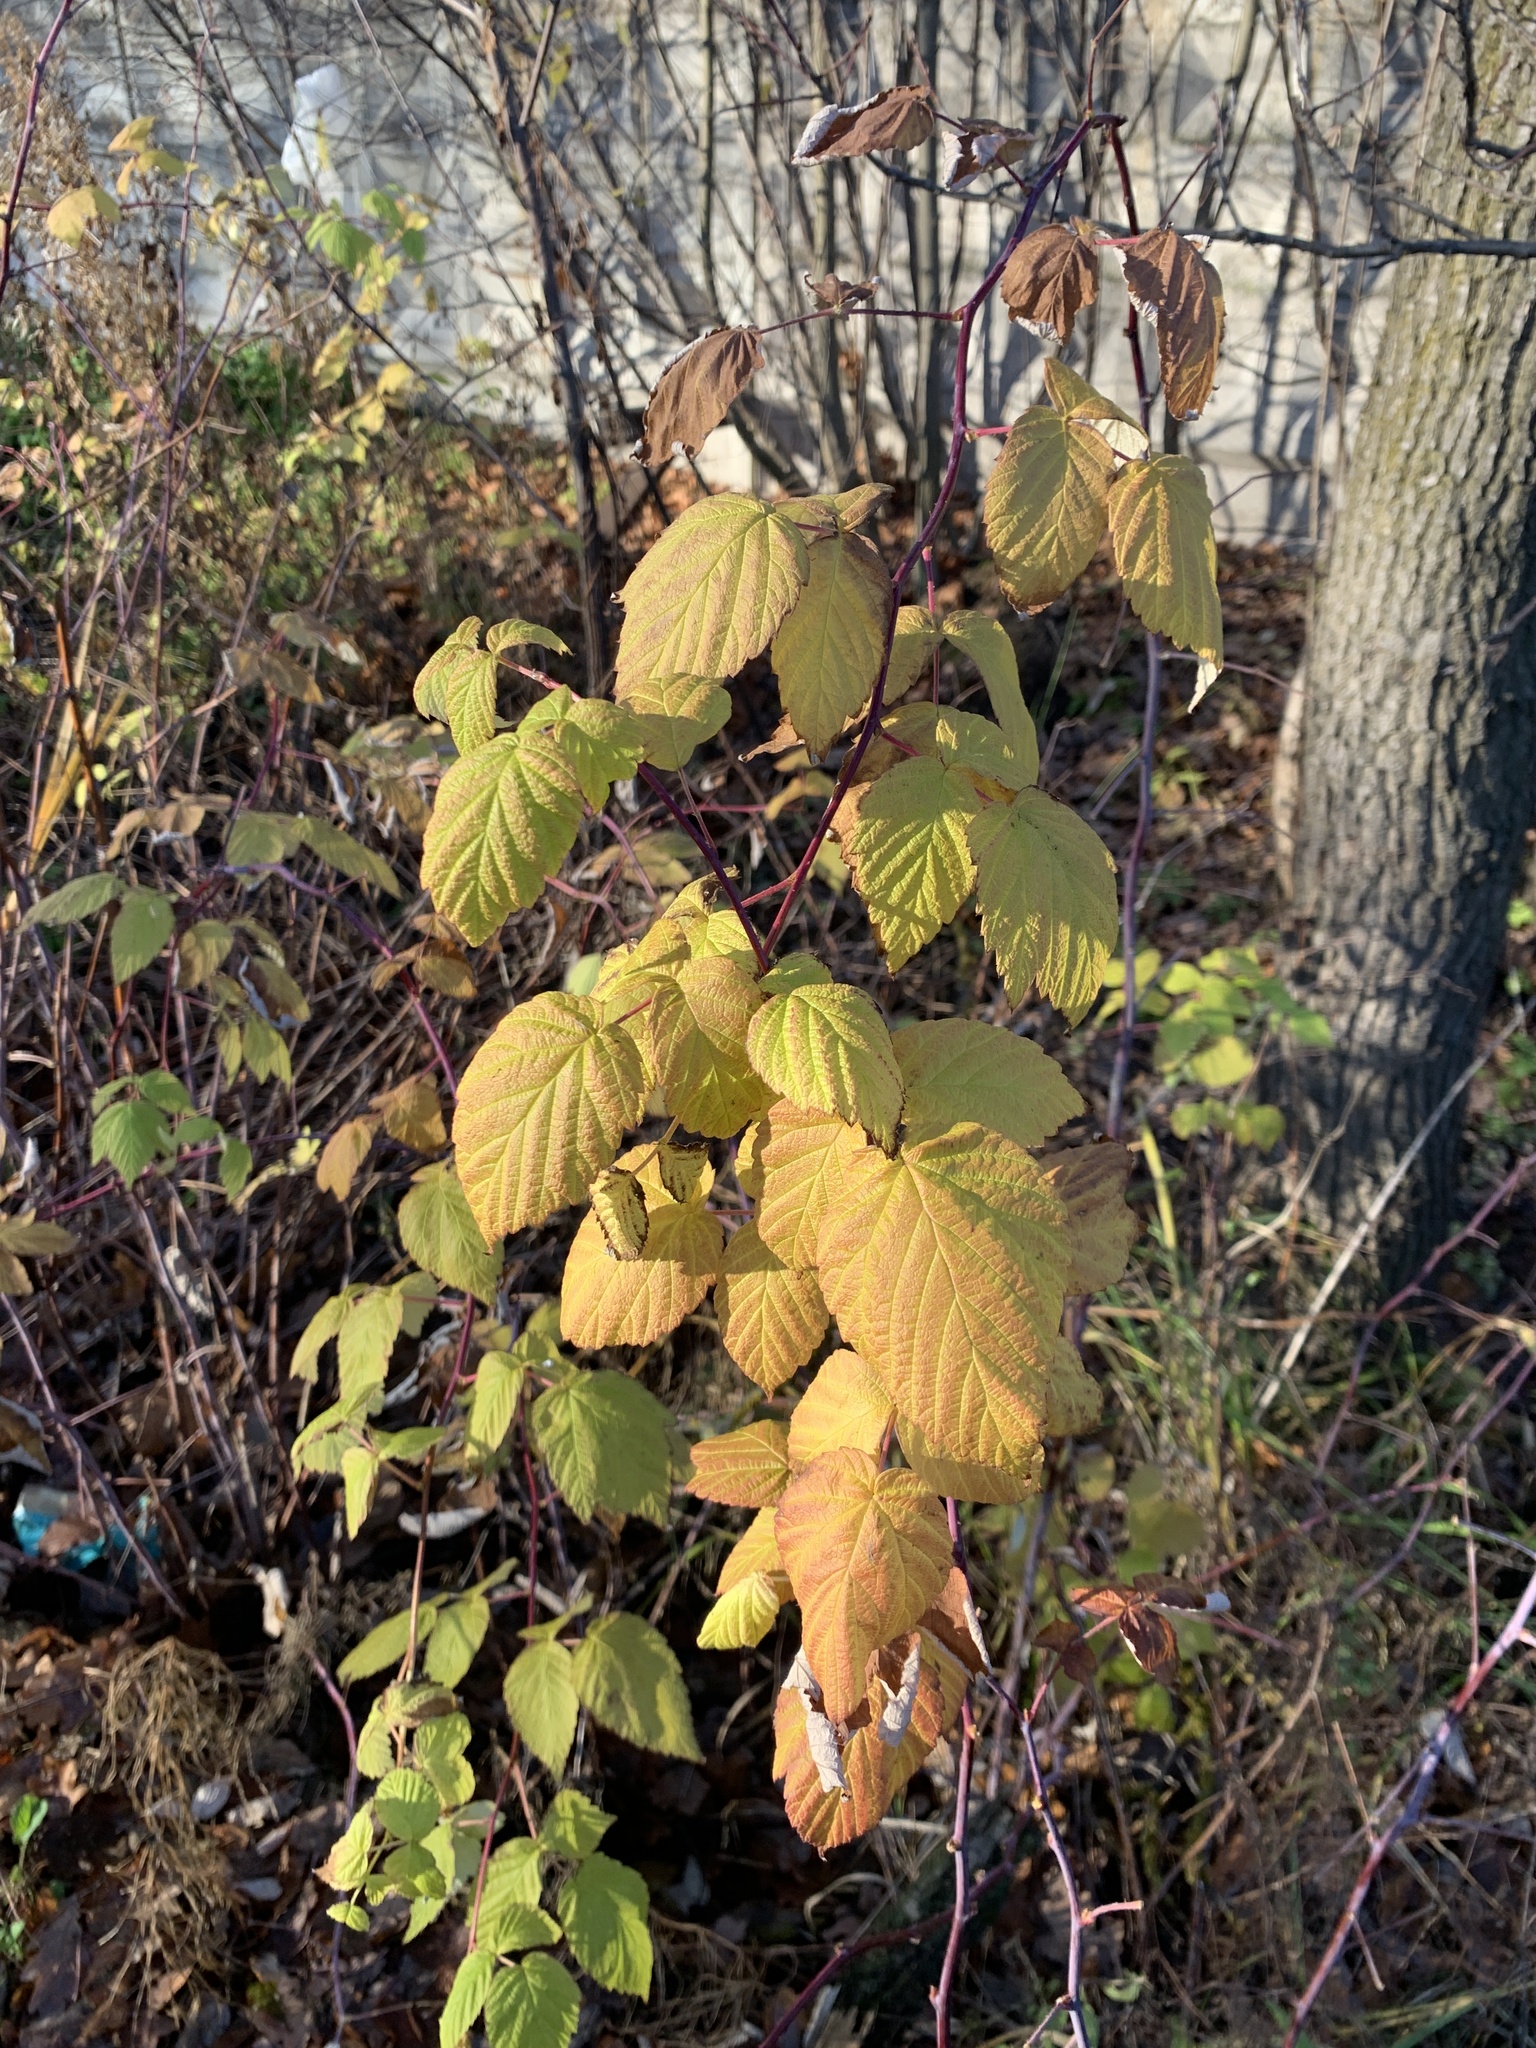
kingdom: Plantae
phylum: Tracheophyta
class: Magnoliopsida
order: Rosales
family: Rosaceae
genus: Rubus
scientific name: Rubus idaeus
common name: Raspberry
